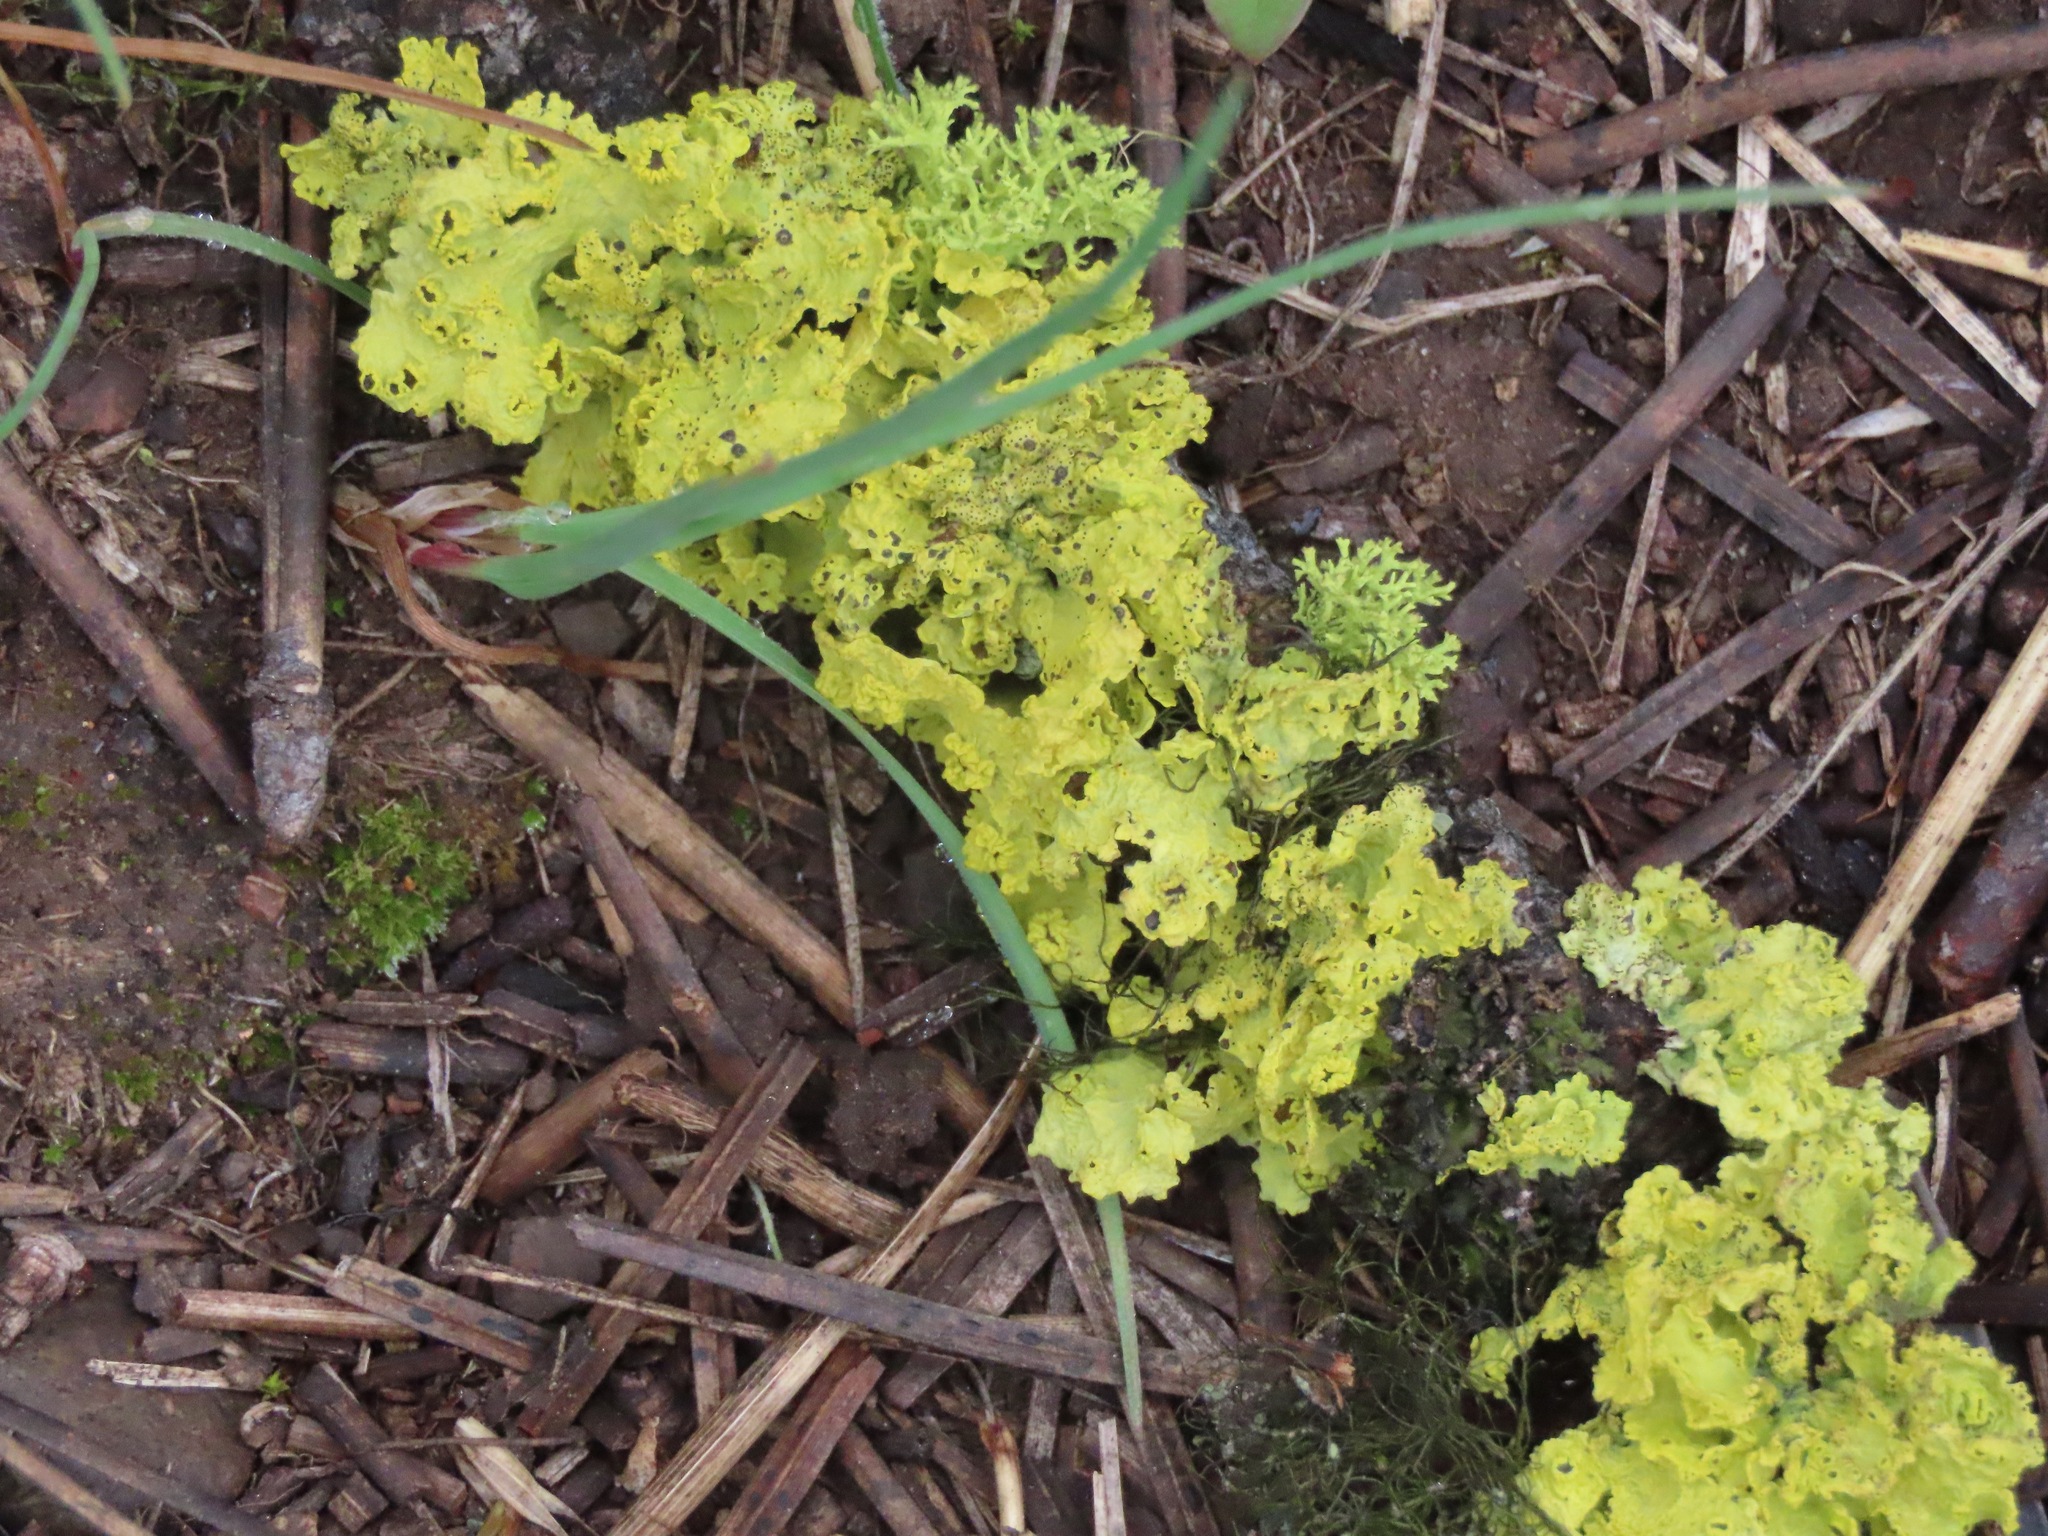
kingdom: Fungi
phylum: Ascomycota
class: Lecanoromycetes
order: Lecanorales
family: Parmeliaceae
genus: Vulpicida
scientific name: Vulpicida canadensis
